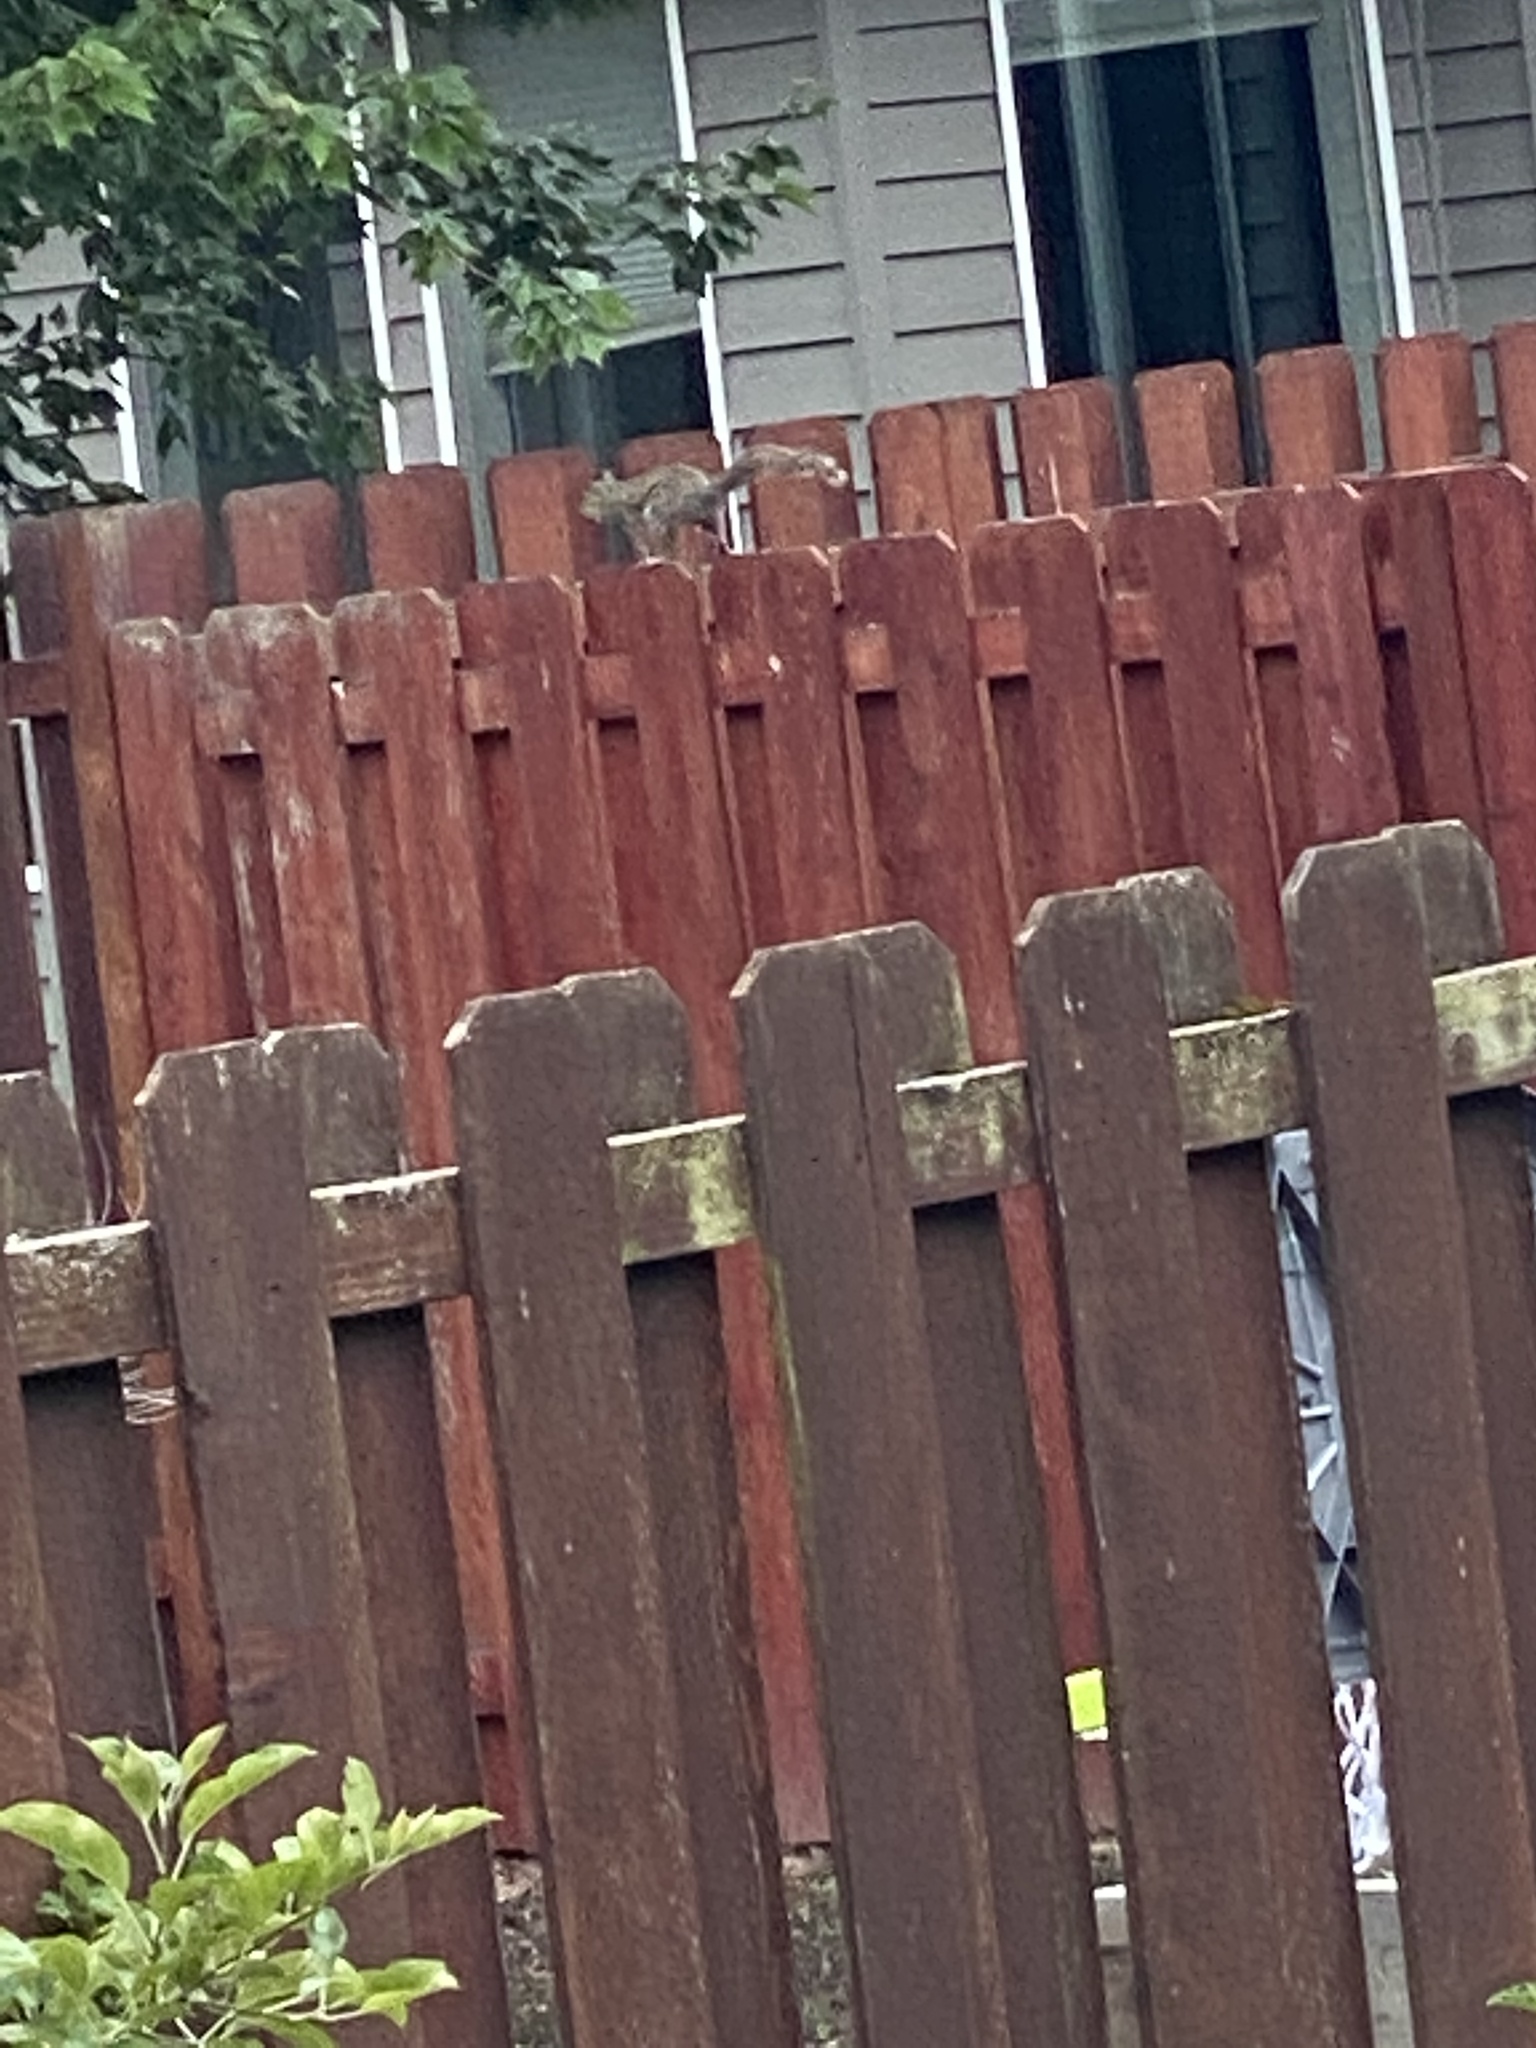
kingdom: Animalia
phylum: Chordata
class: Mammalia
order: Rodentia
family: Sciuridae
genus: Sciurus
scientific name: Sciurus carolinensis
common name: Eastern gray squirrel
